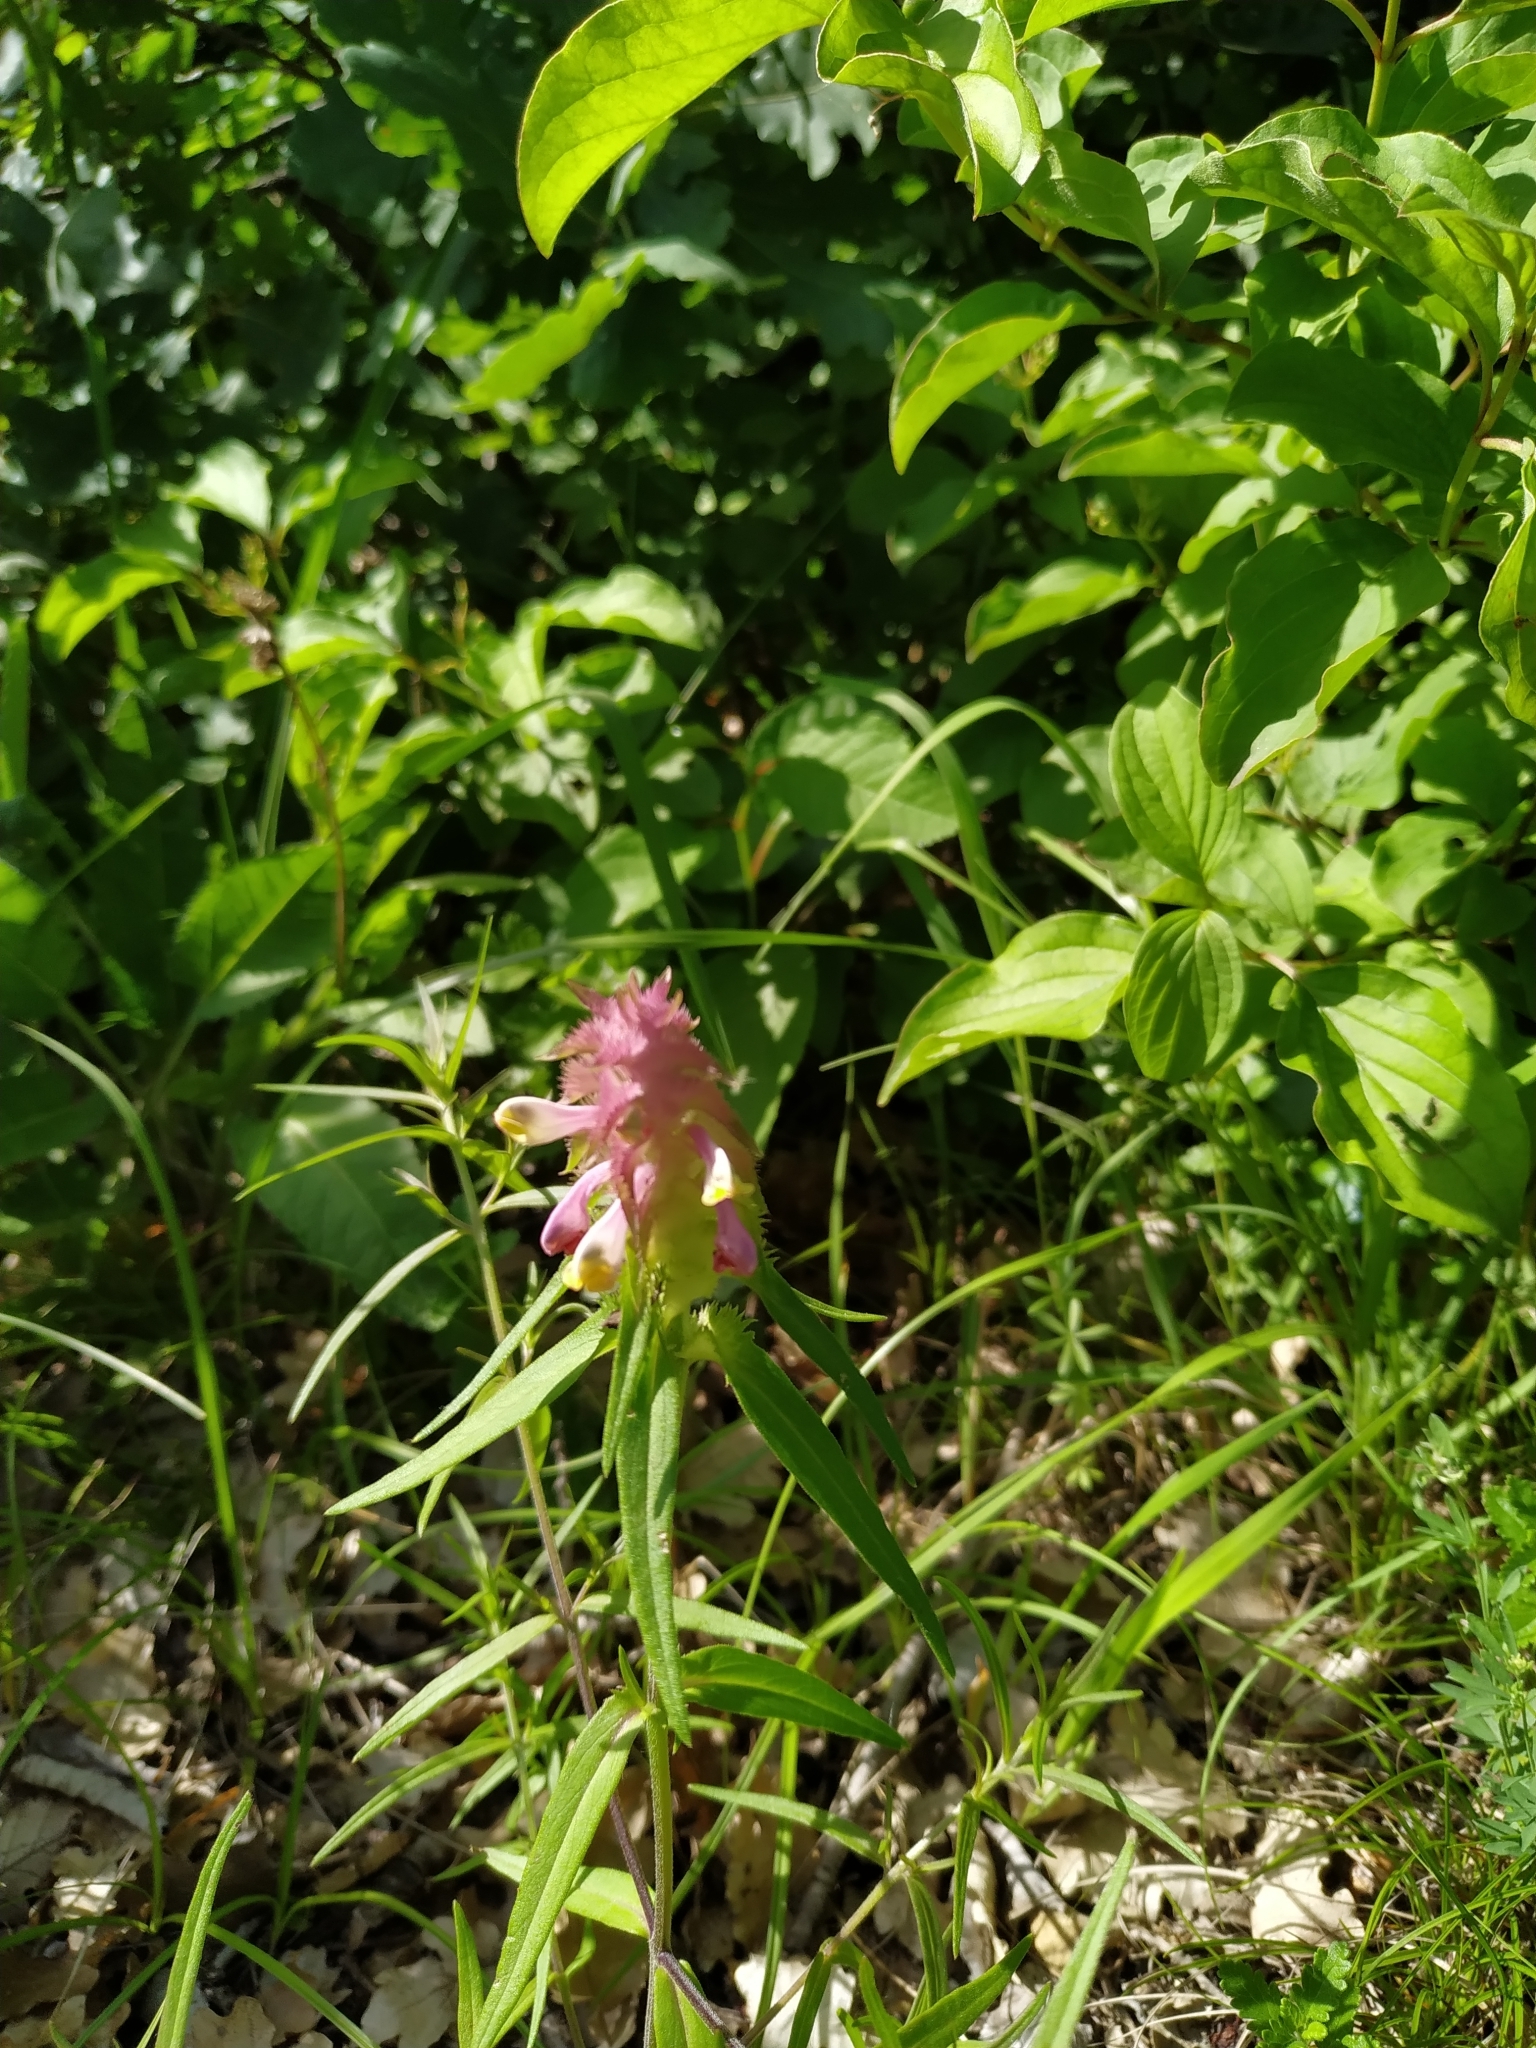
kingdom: Plantae
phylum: Tracheophyta
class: Magnoliopsida
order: Lamiales
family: Orobanchaceae
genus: Melampyrum
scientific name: Melampyrum cristatum
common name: Crested cow-wheat
